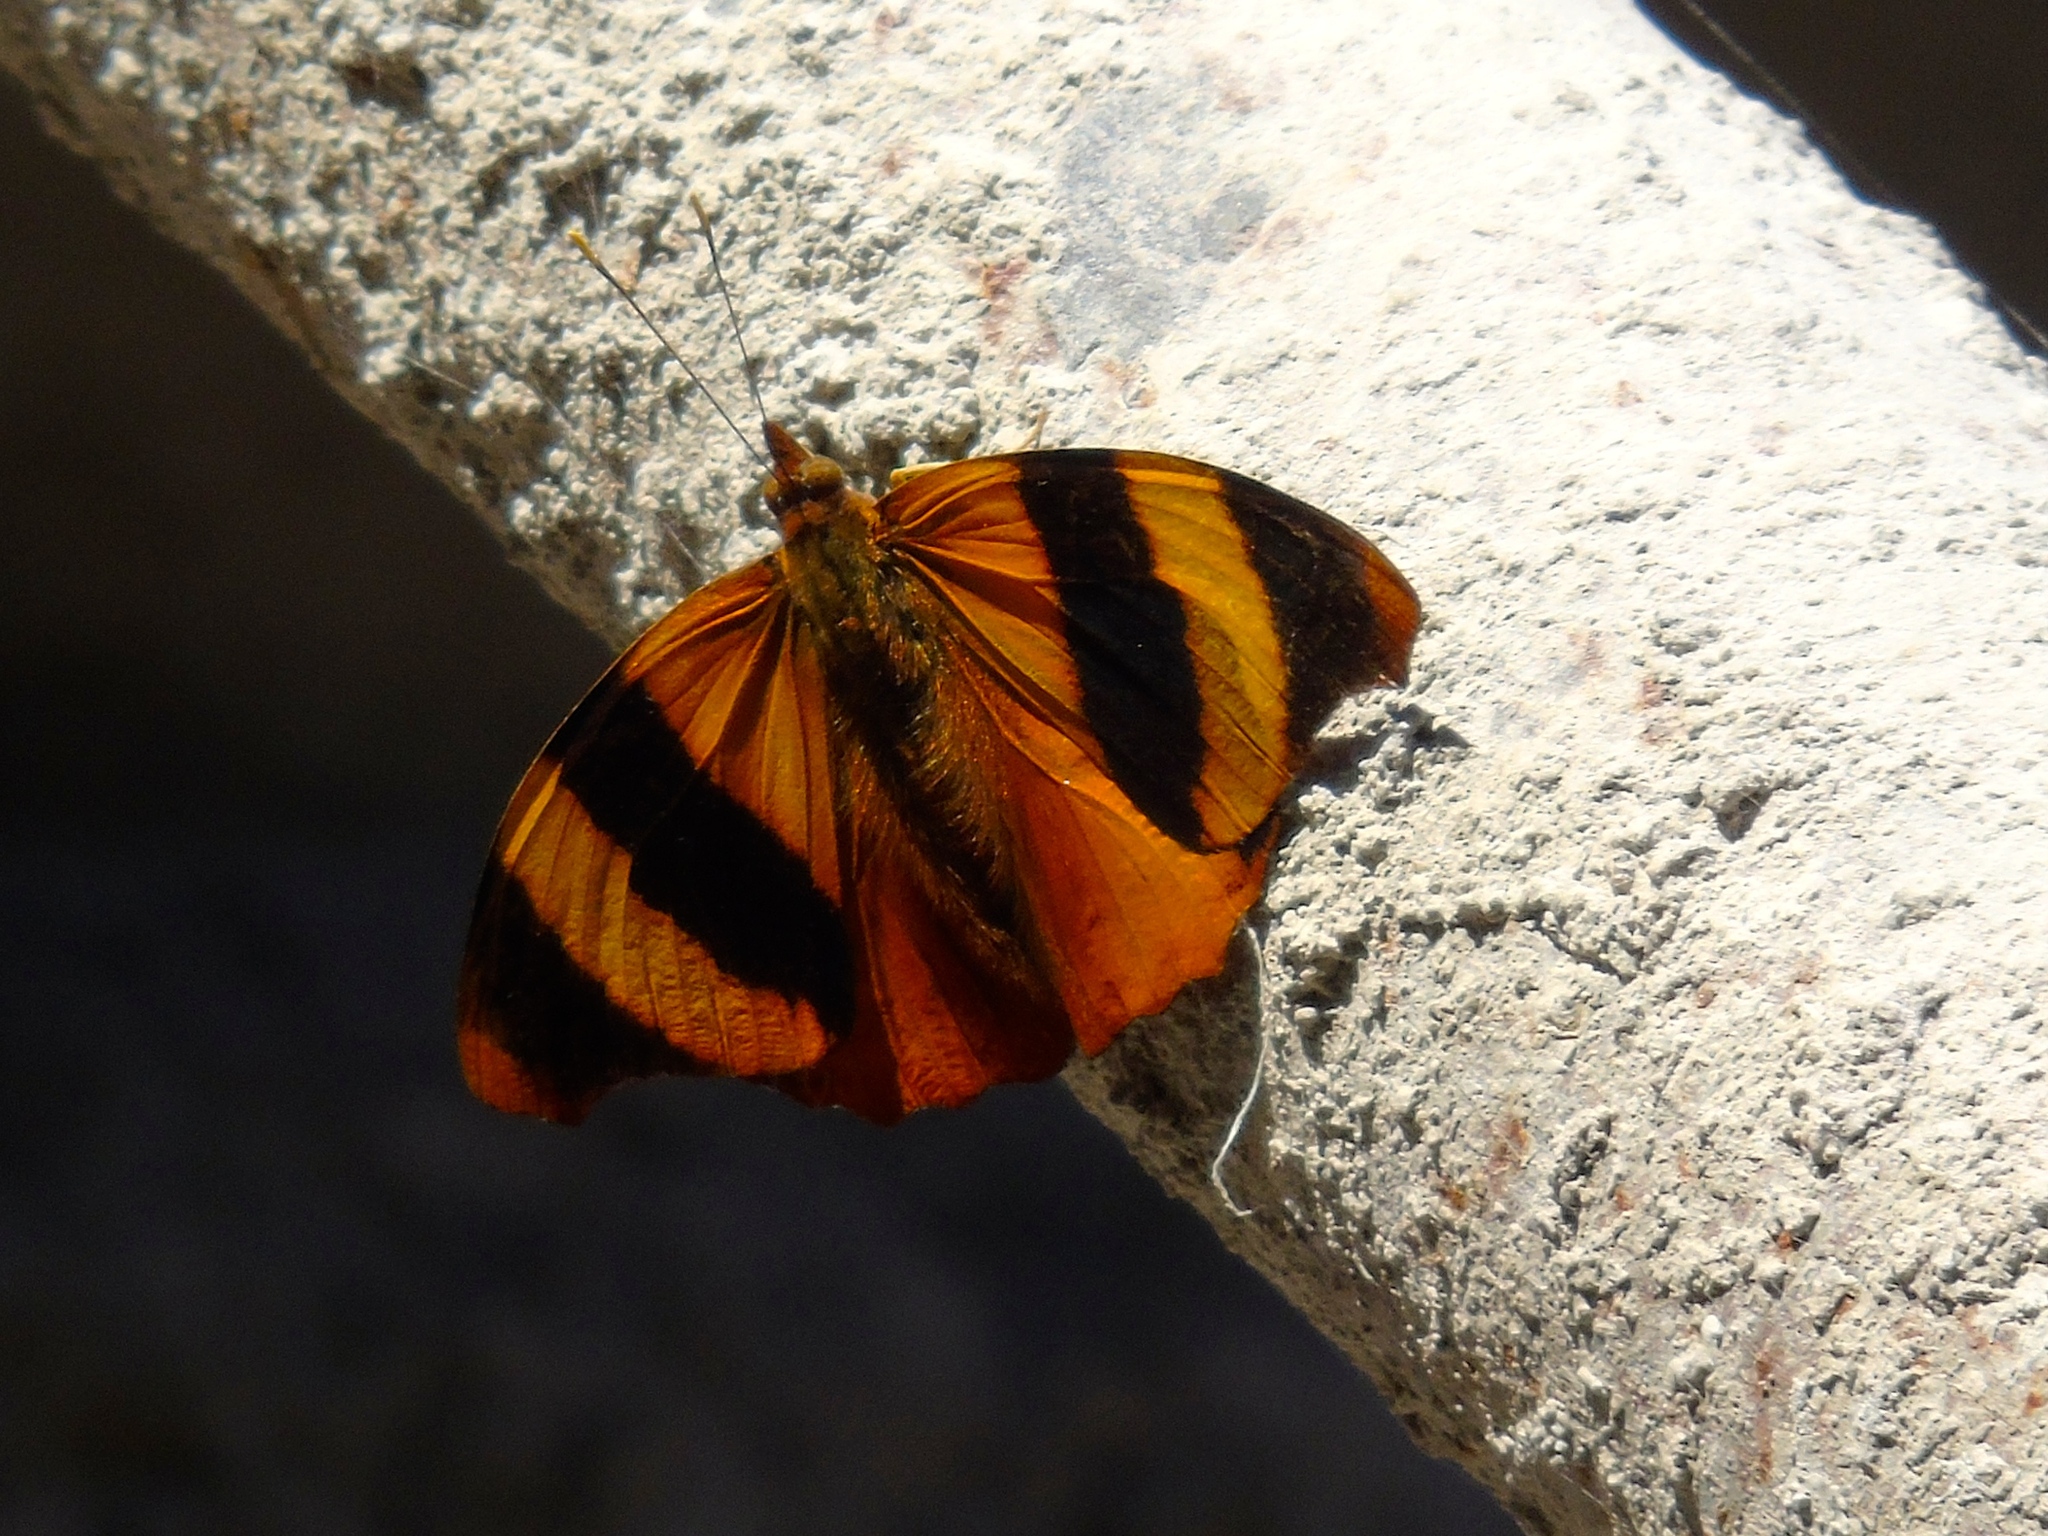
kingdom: Animalia
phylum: Arthropoda
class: Insecta
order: Lepidoptera
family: Nymphalidae
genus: Epiphile
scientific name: Epiphile adrasta
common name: Common banner
